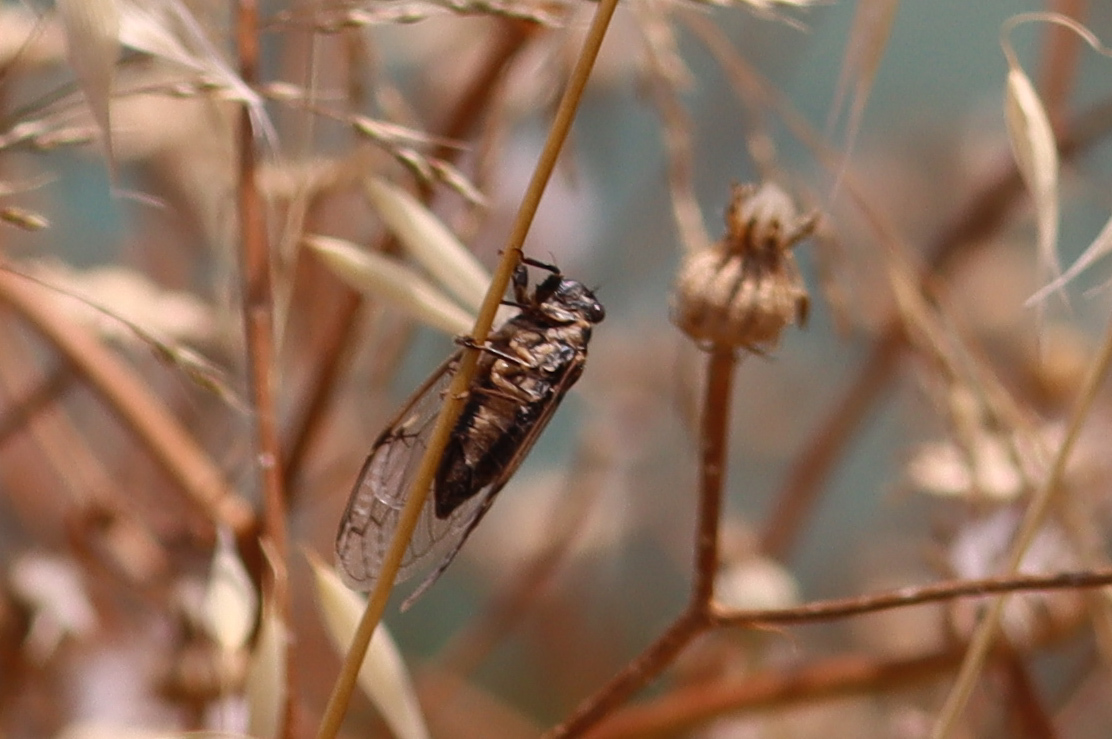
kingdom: Animalia
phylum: Arthropoda
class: Insecta
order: Hemiptera
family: Cicadidae
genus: Cicadatra
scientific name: Cicadatra atra
